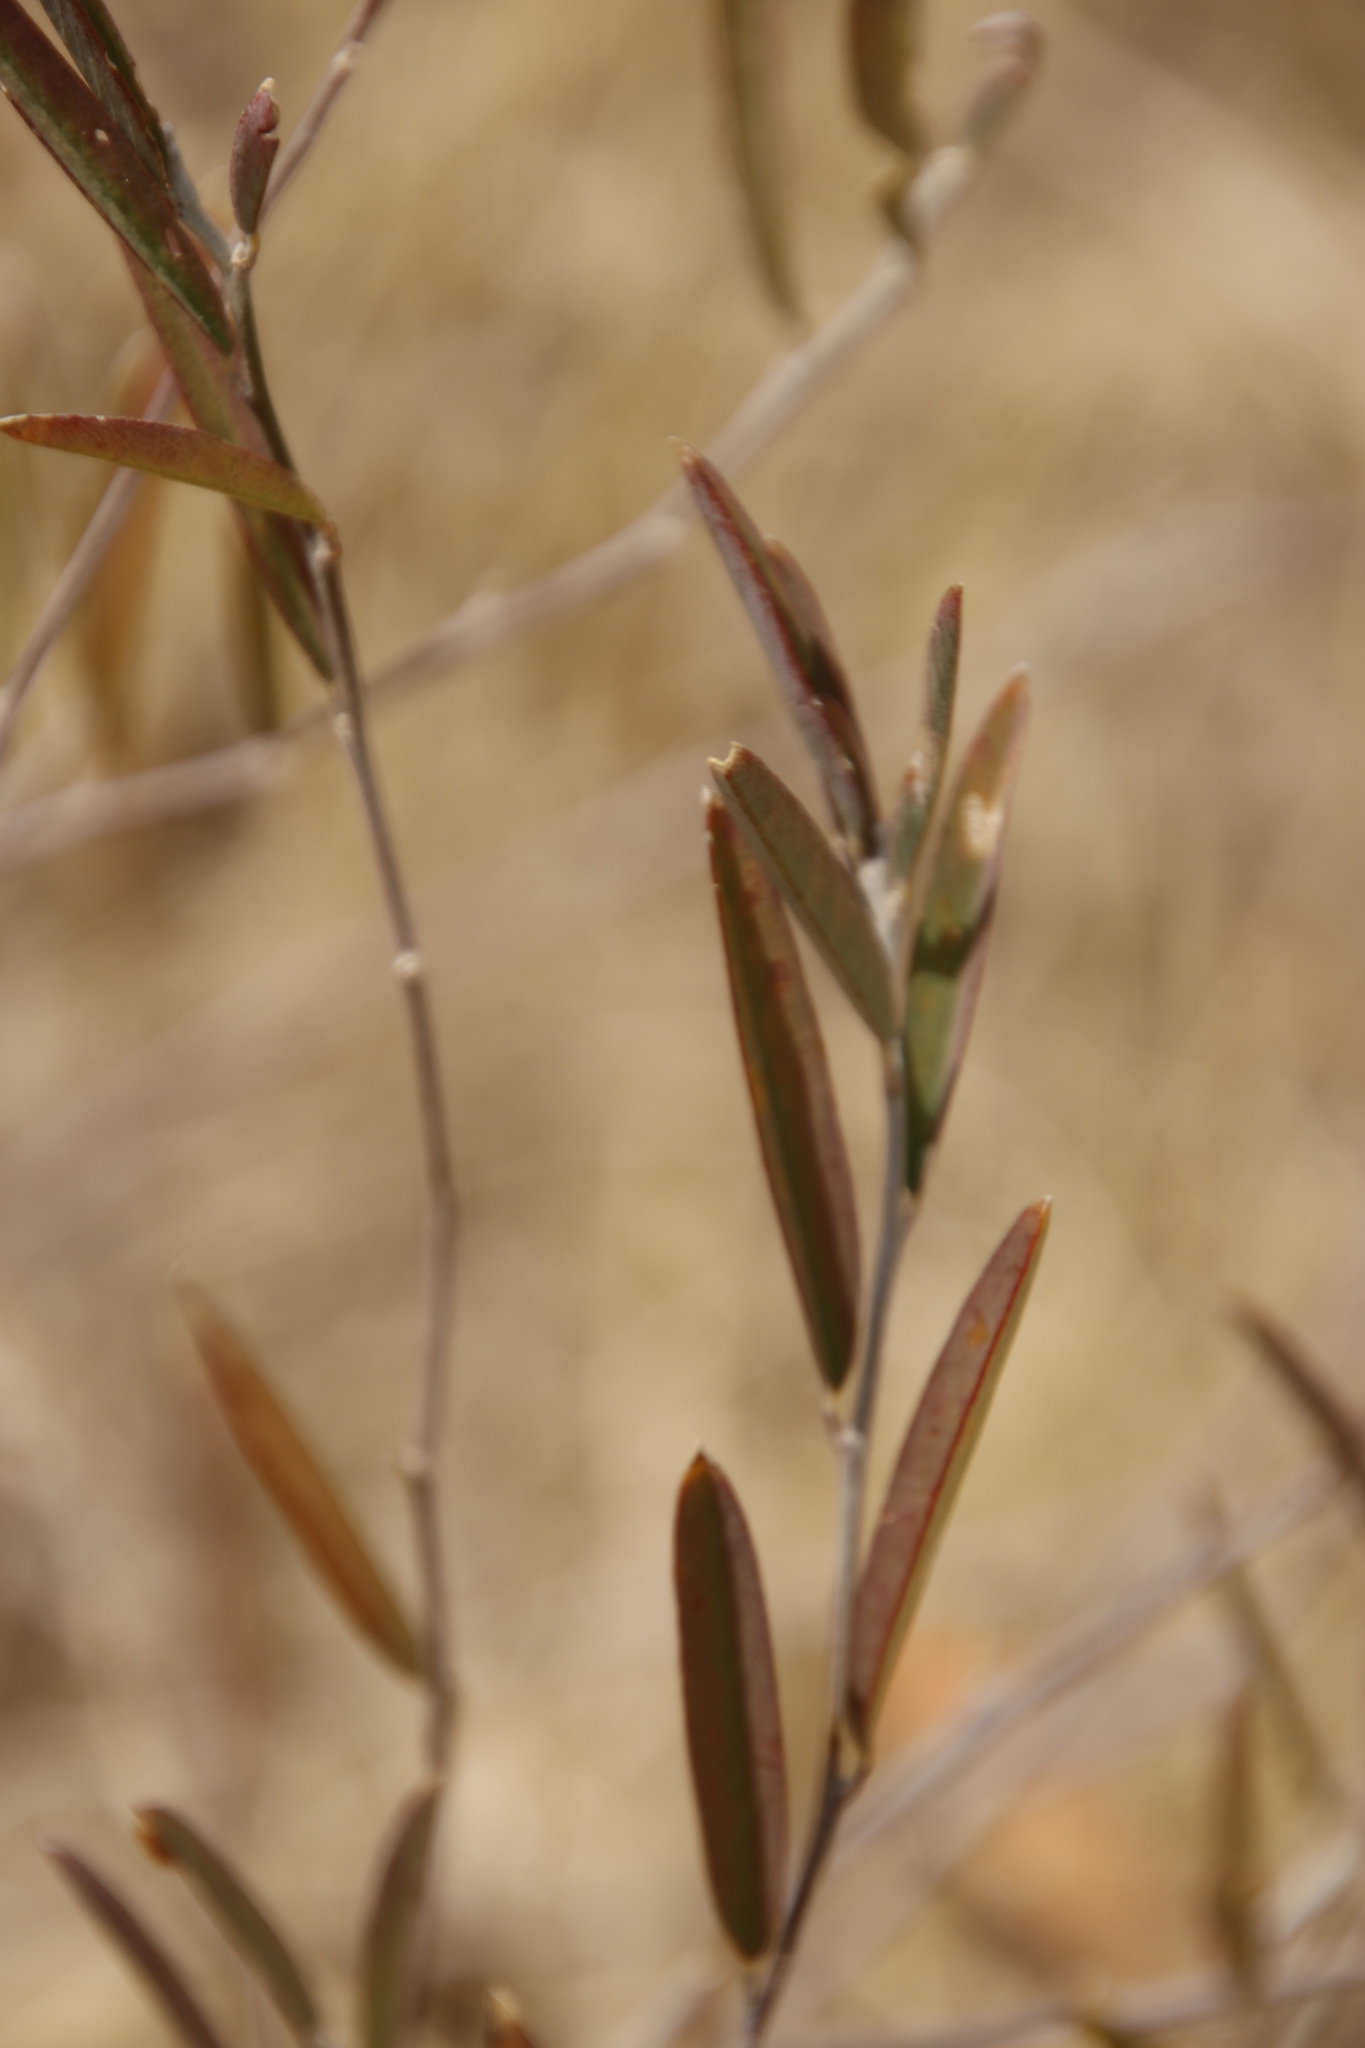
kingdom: Plantae
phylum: Tracheophyta
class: Magnoliopsida
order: Fabales
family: Fabaceae
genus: Ptycholobium
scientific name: Ptycholobium biflorum
